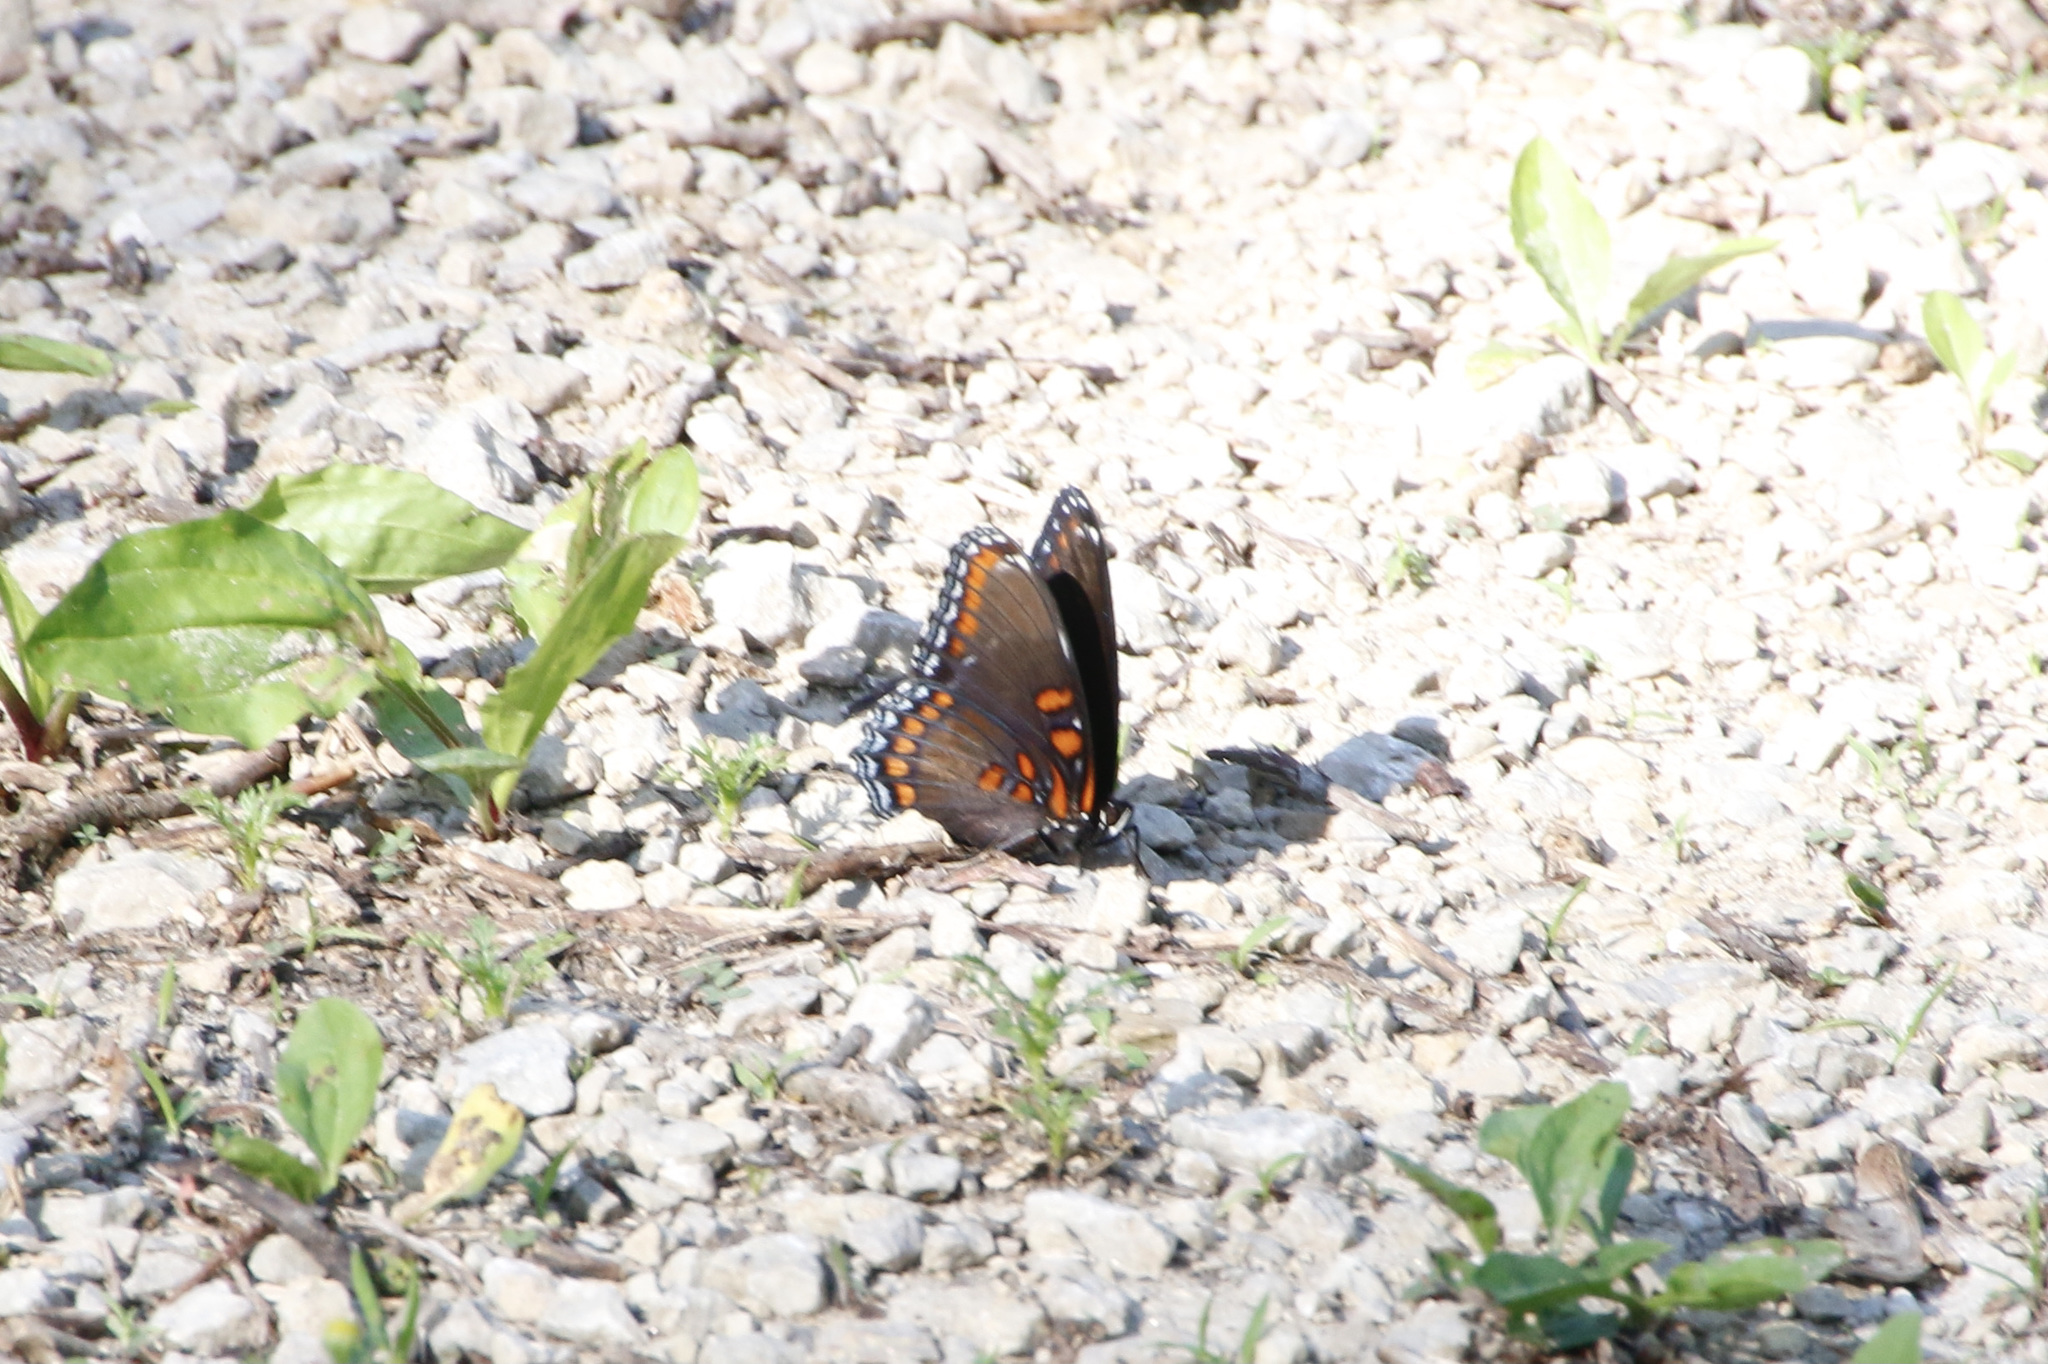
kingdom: Animalia
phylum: Arthropoda
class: Insecta
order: Lepidoptera
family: Nymphalidae
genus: Limenitis
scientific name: Limenitis astyanax
